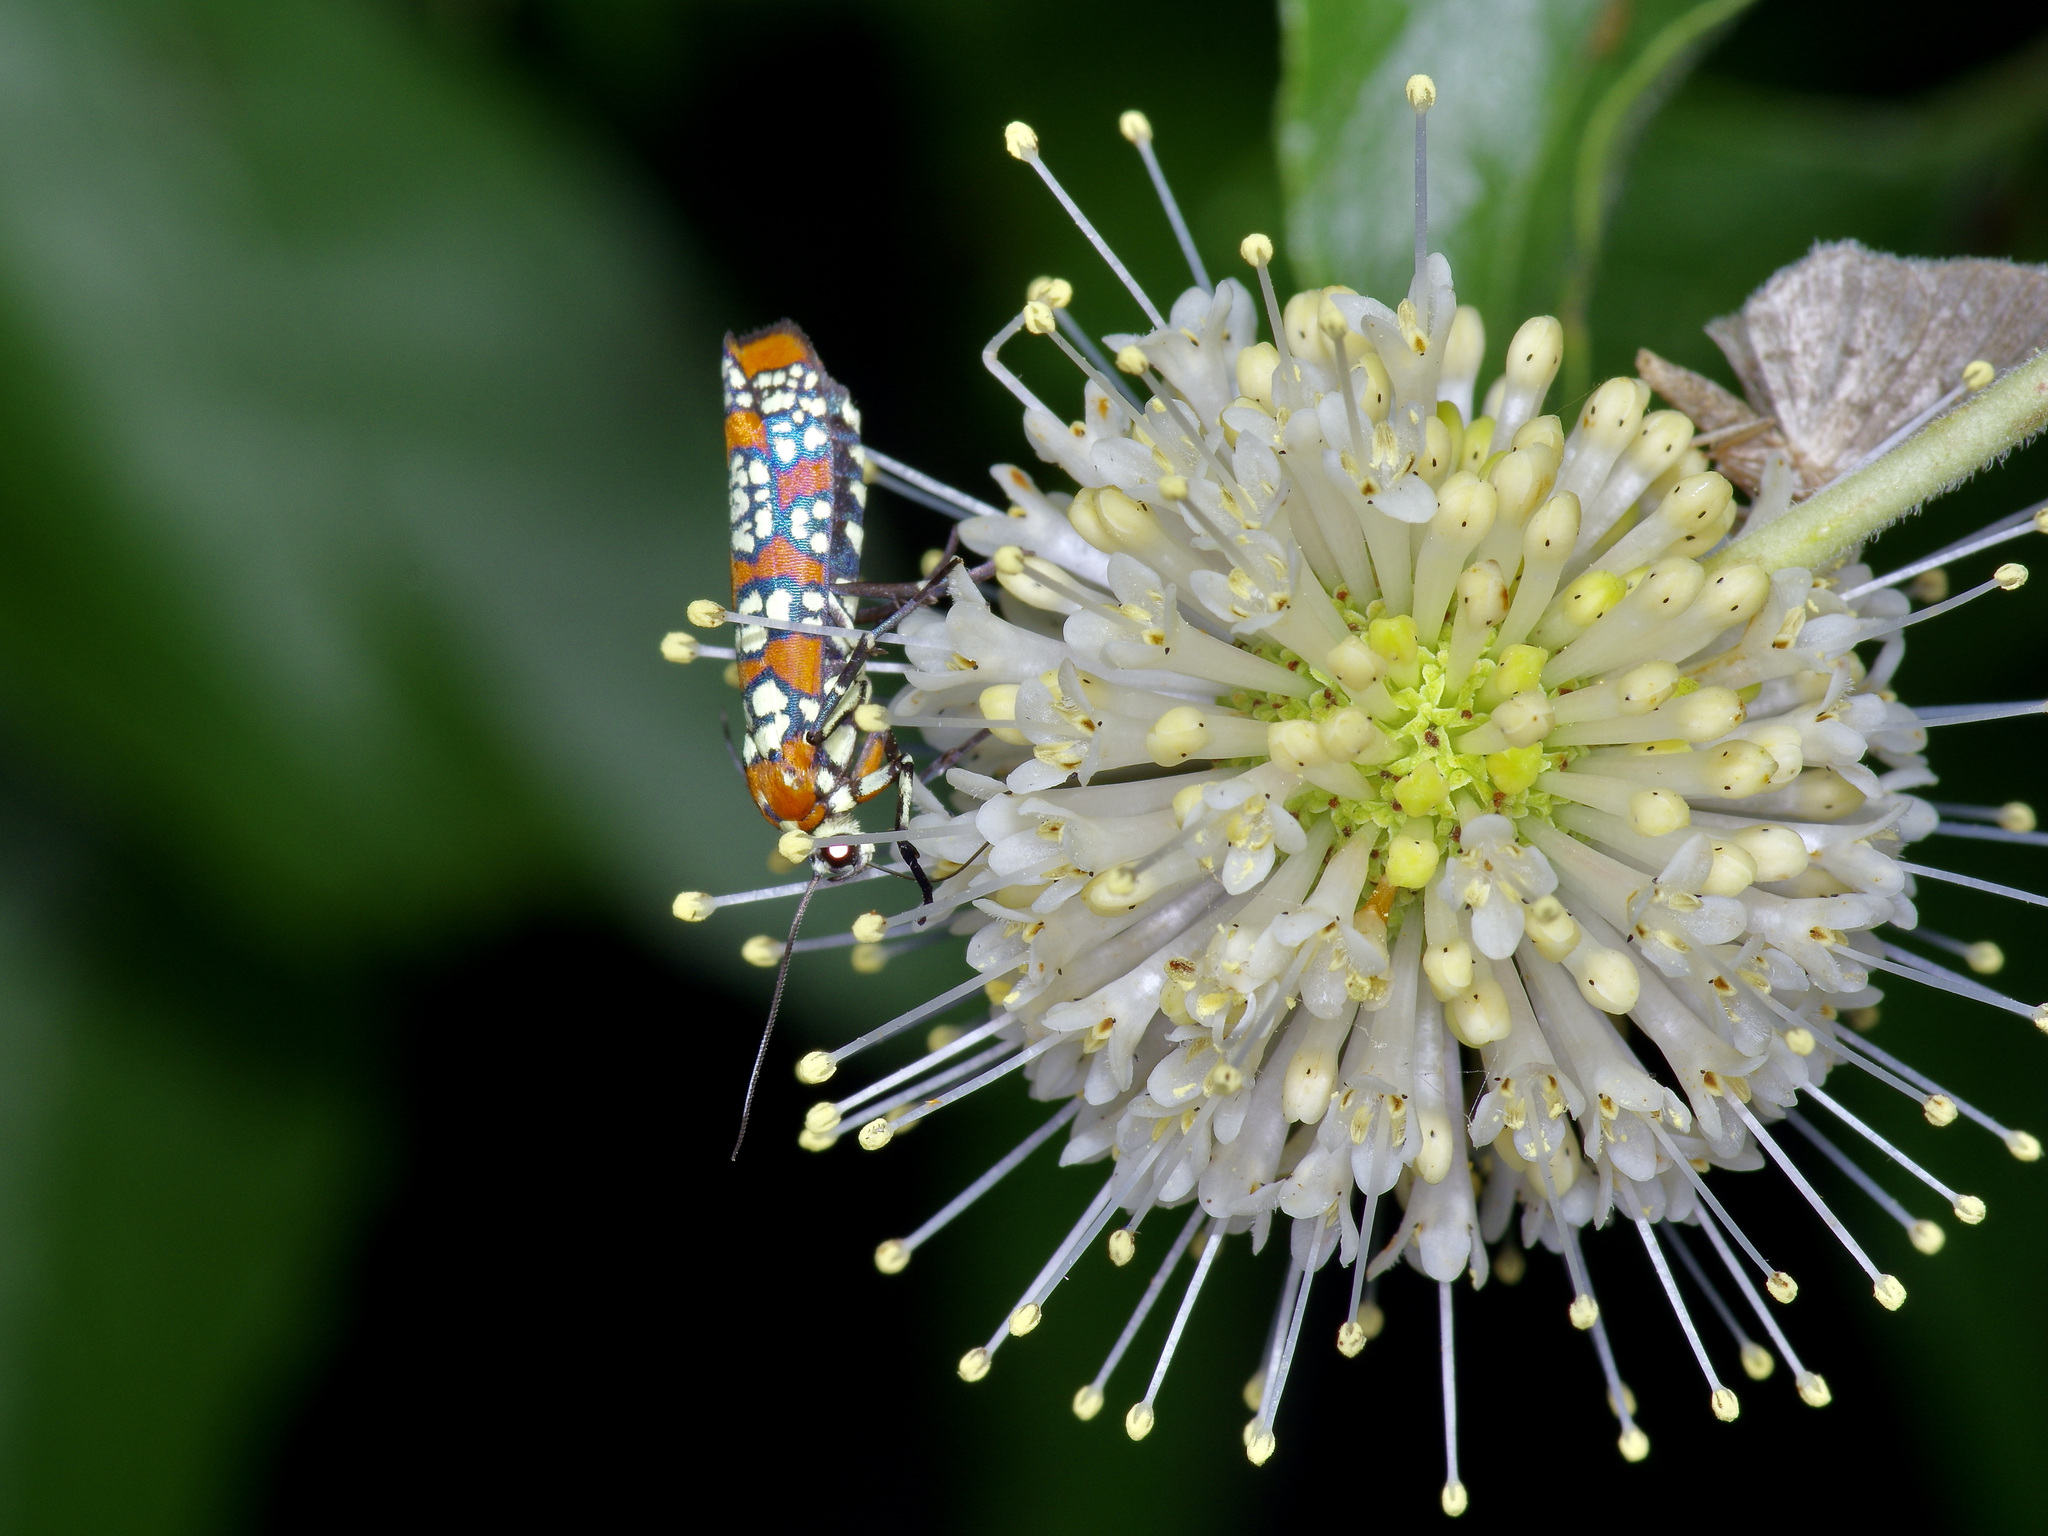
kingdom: Animalia
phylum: Arthropoda
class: Insecta
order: Lepidoptera
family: Attevidae
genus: Atteva
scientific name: Atteva punctella
